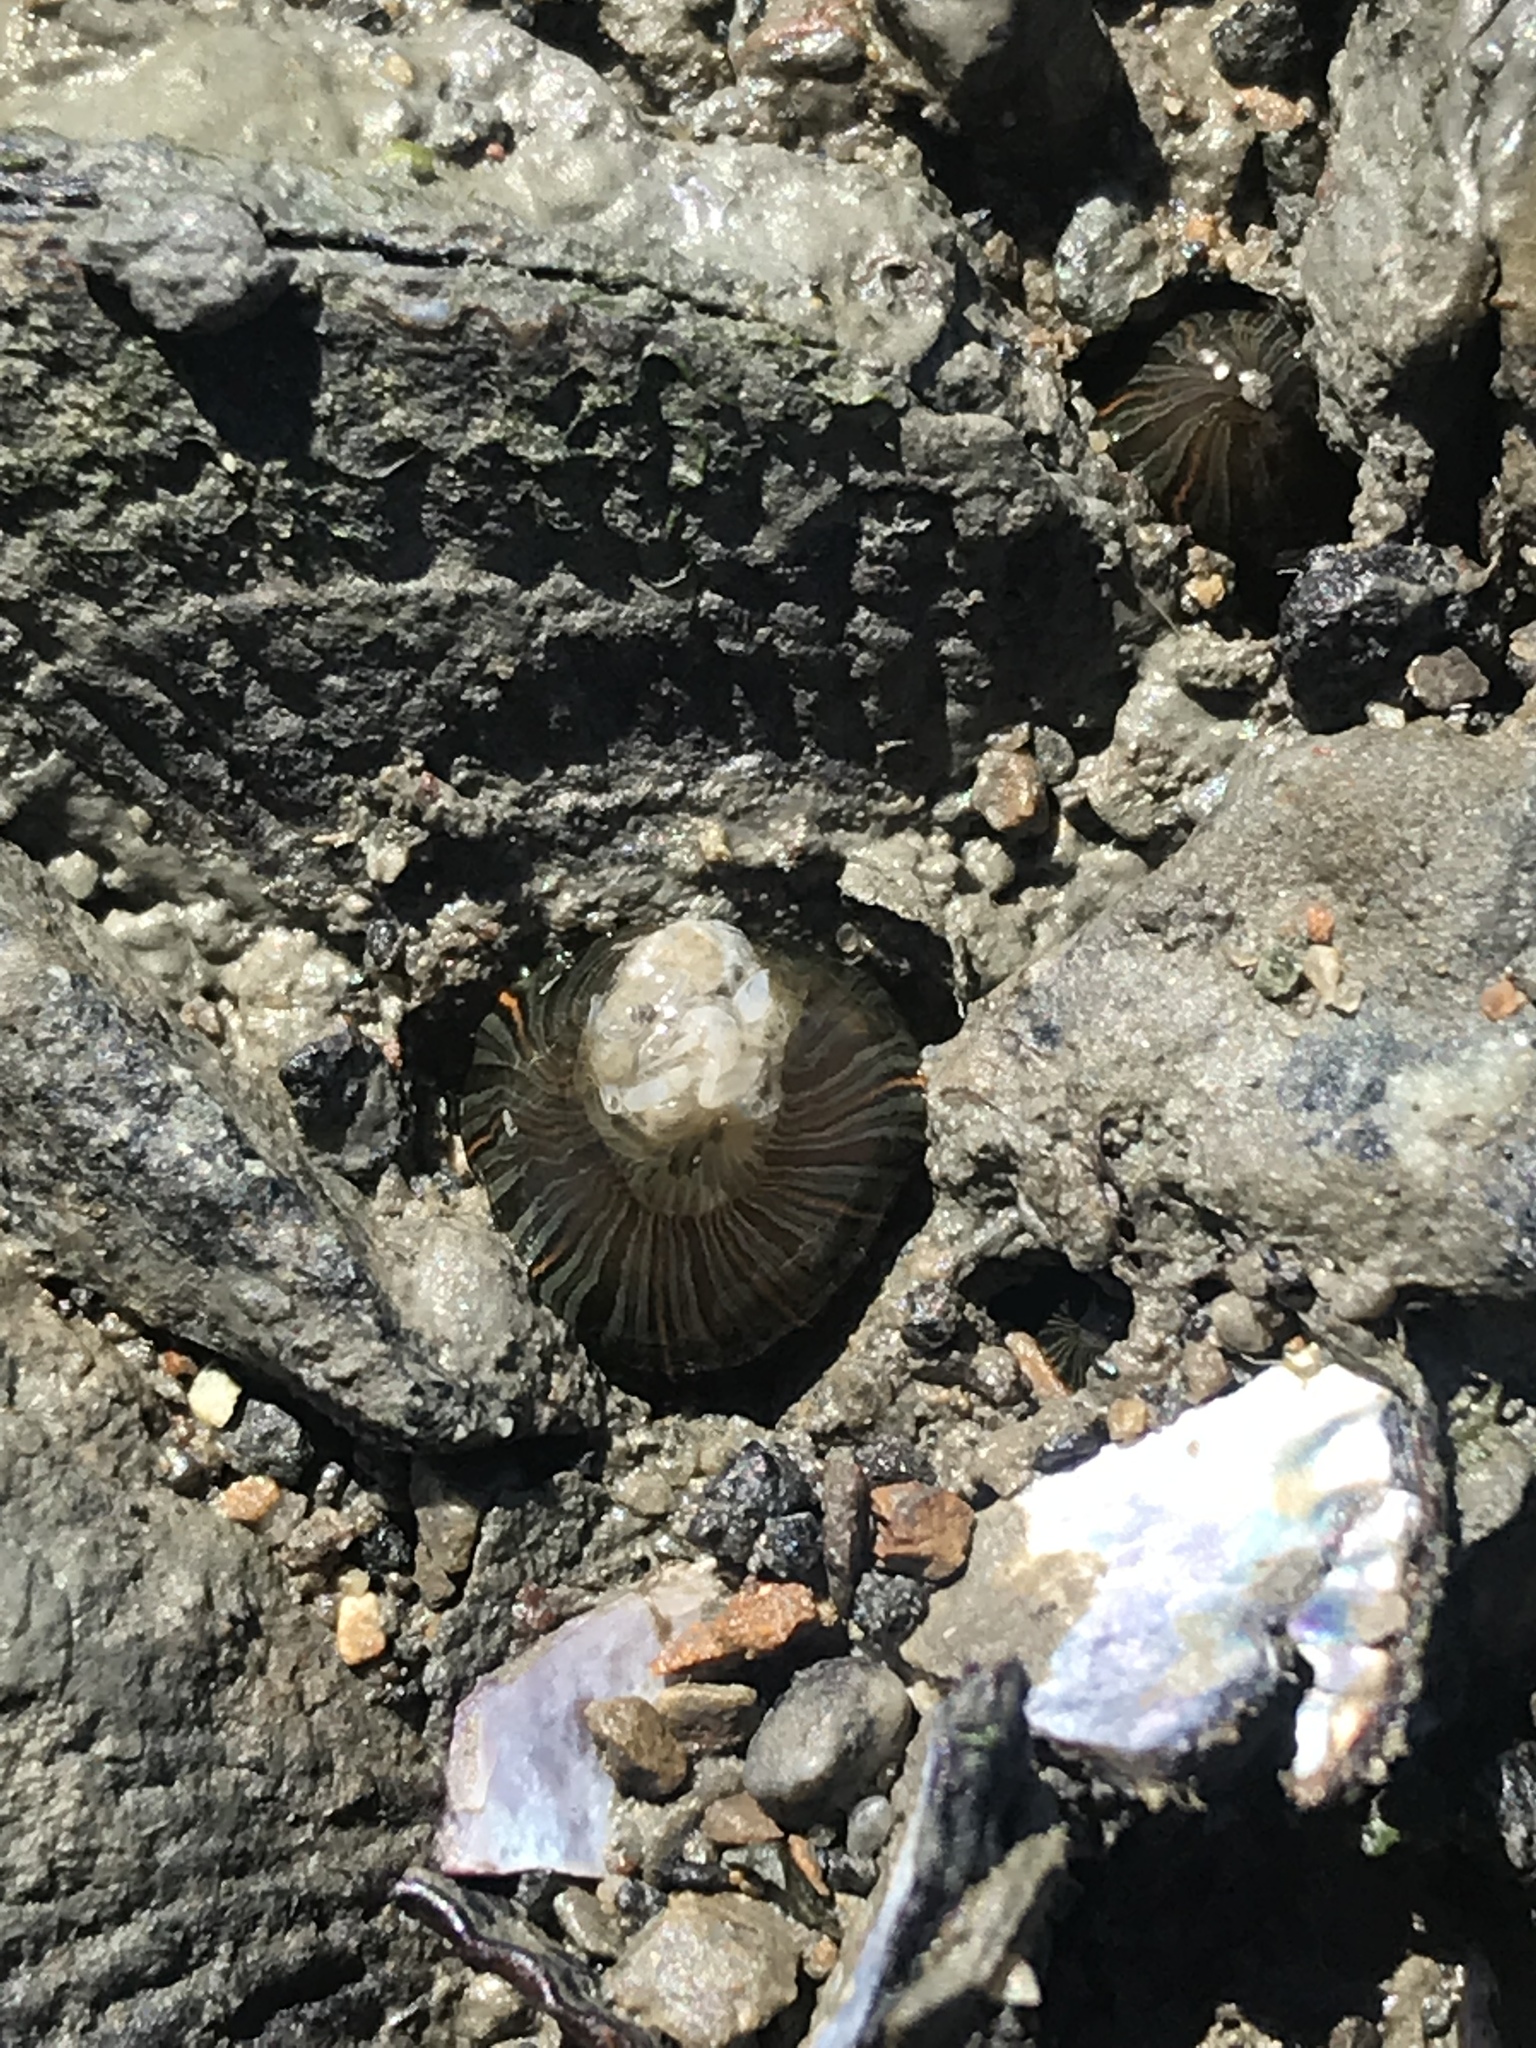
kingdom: Animalia
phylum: Cnidaria
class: Anthozoa
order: Actiniaria
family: Diadumenidae
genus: Diadumene
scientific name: Diadumene lineata
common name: Orange-striped anemone
